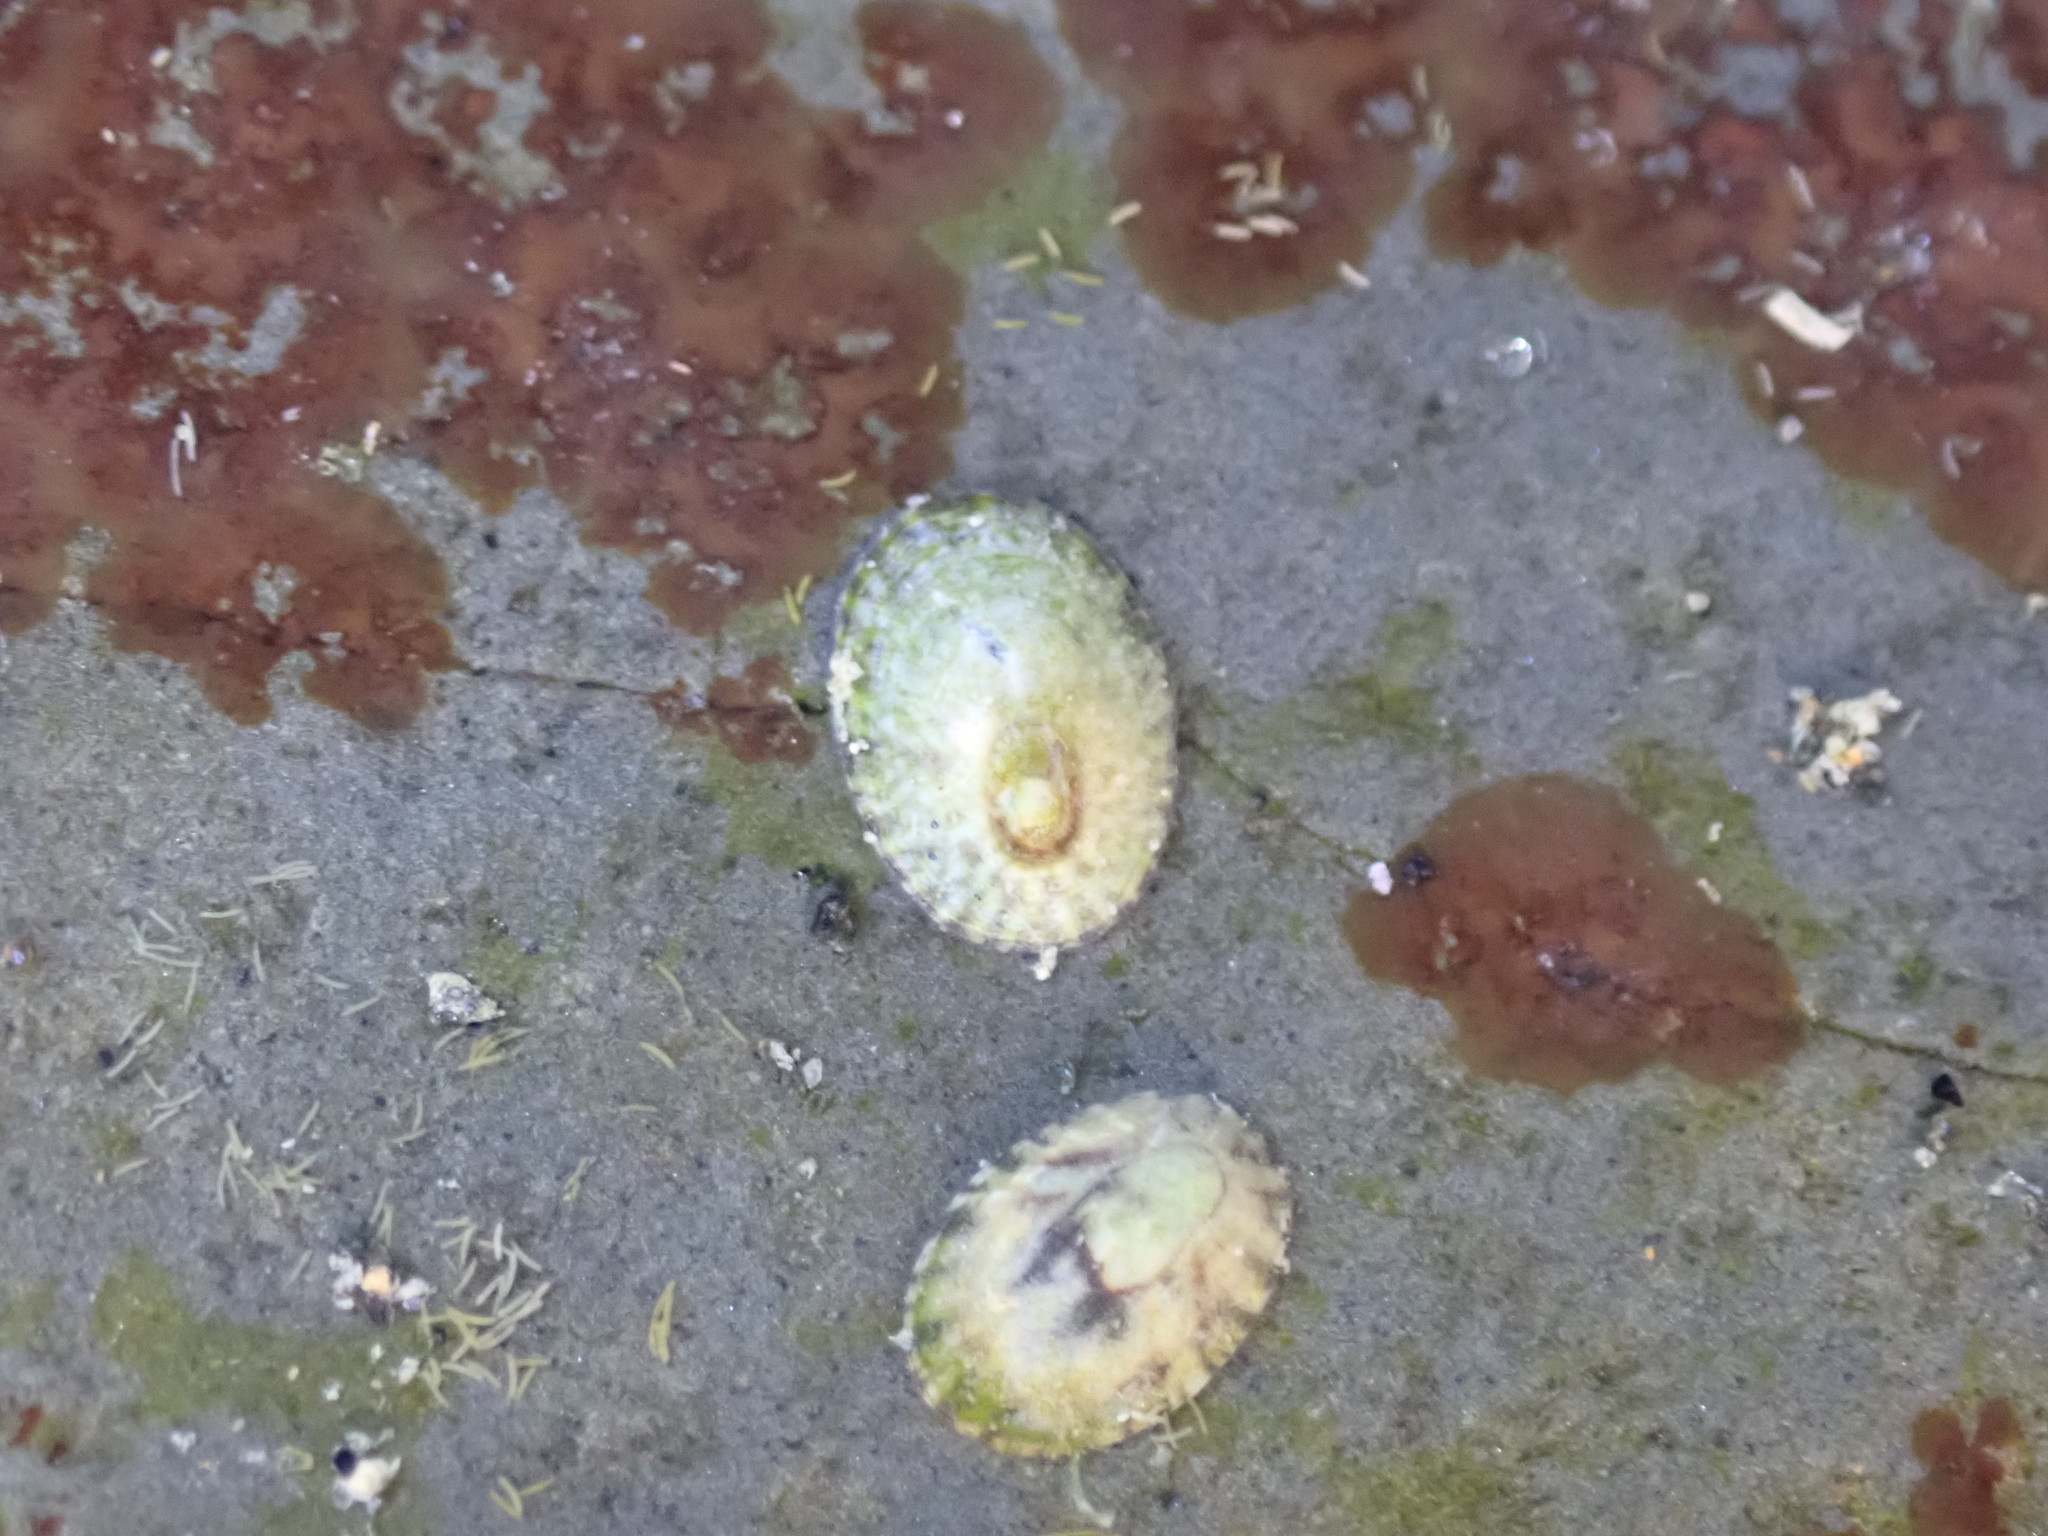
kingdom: Animalia
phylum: Mollusca
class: Gastropoda
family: Lottiidae
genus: Notoacmea
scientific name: Notoacmea elongata
